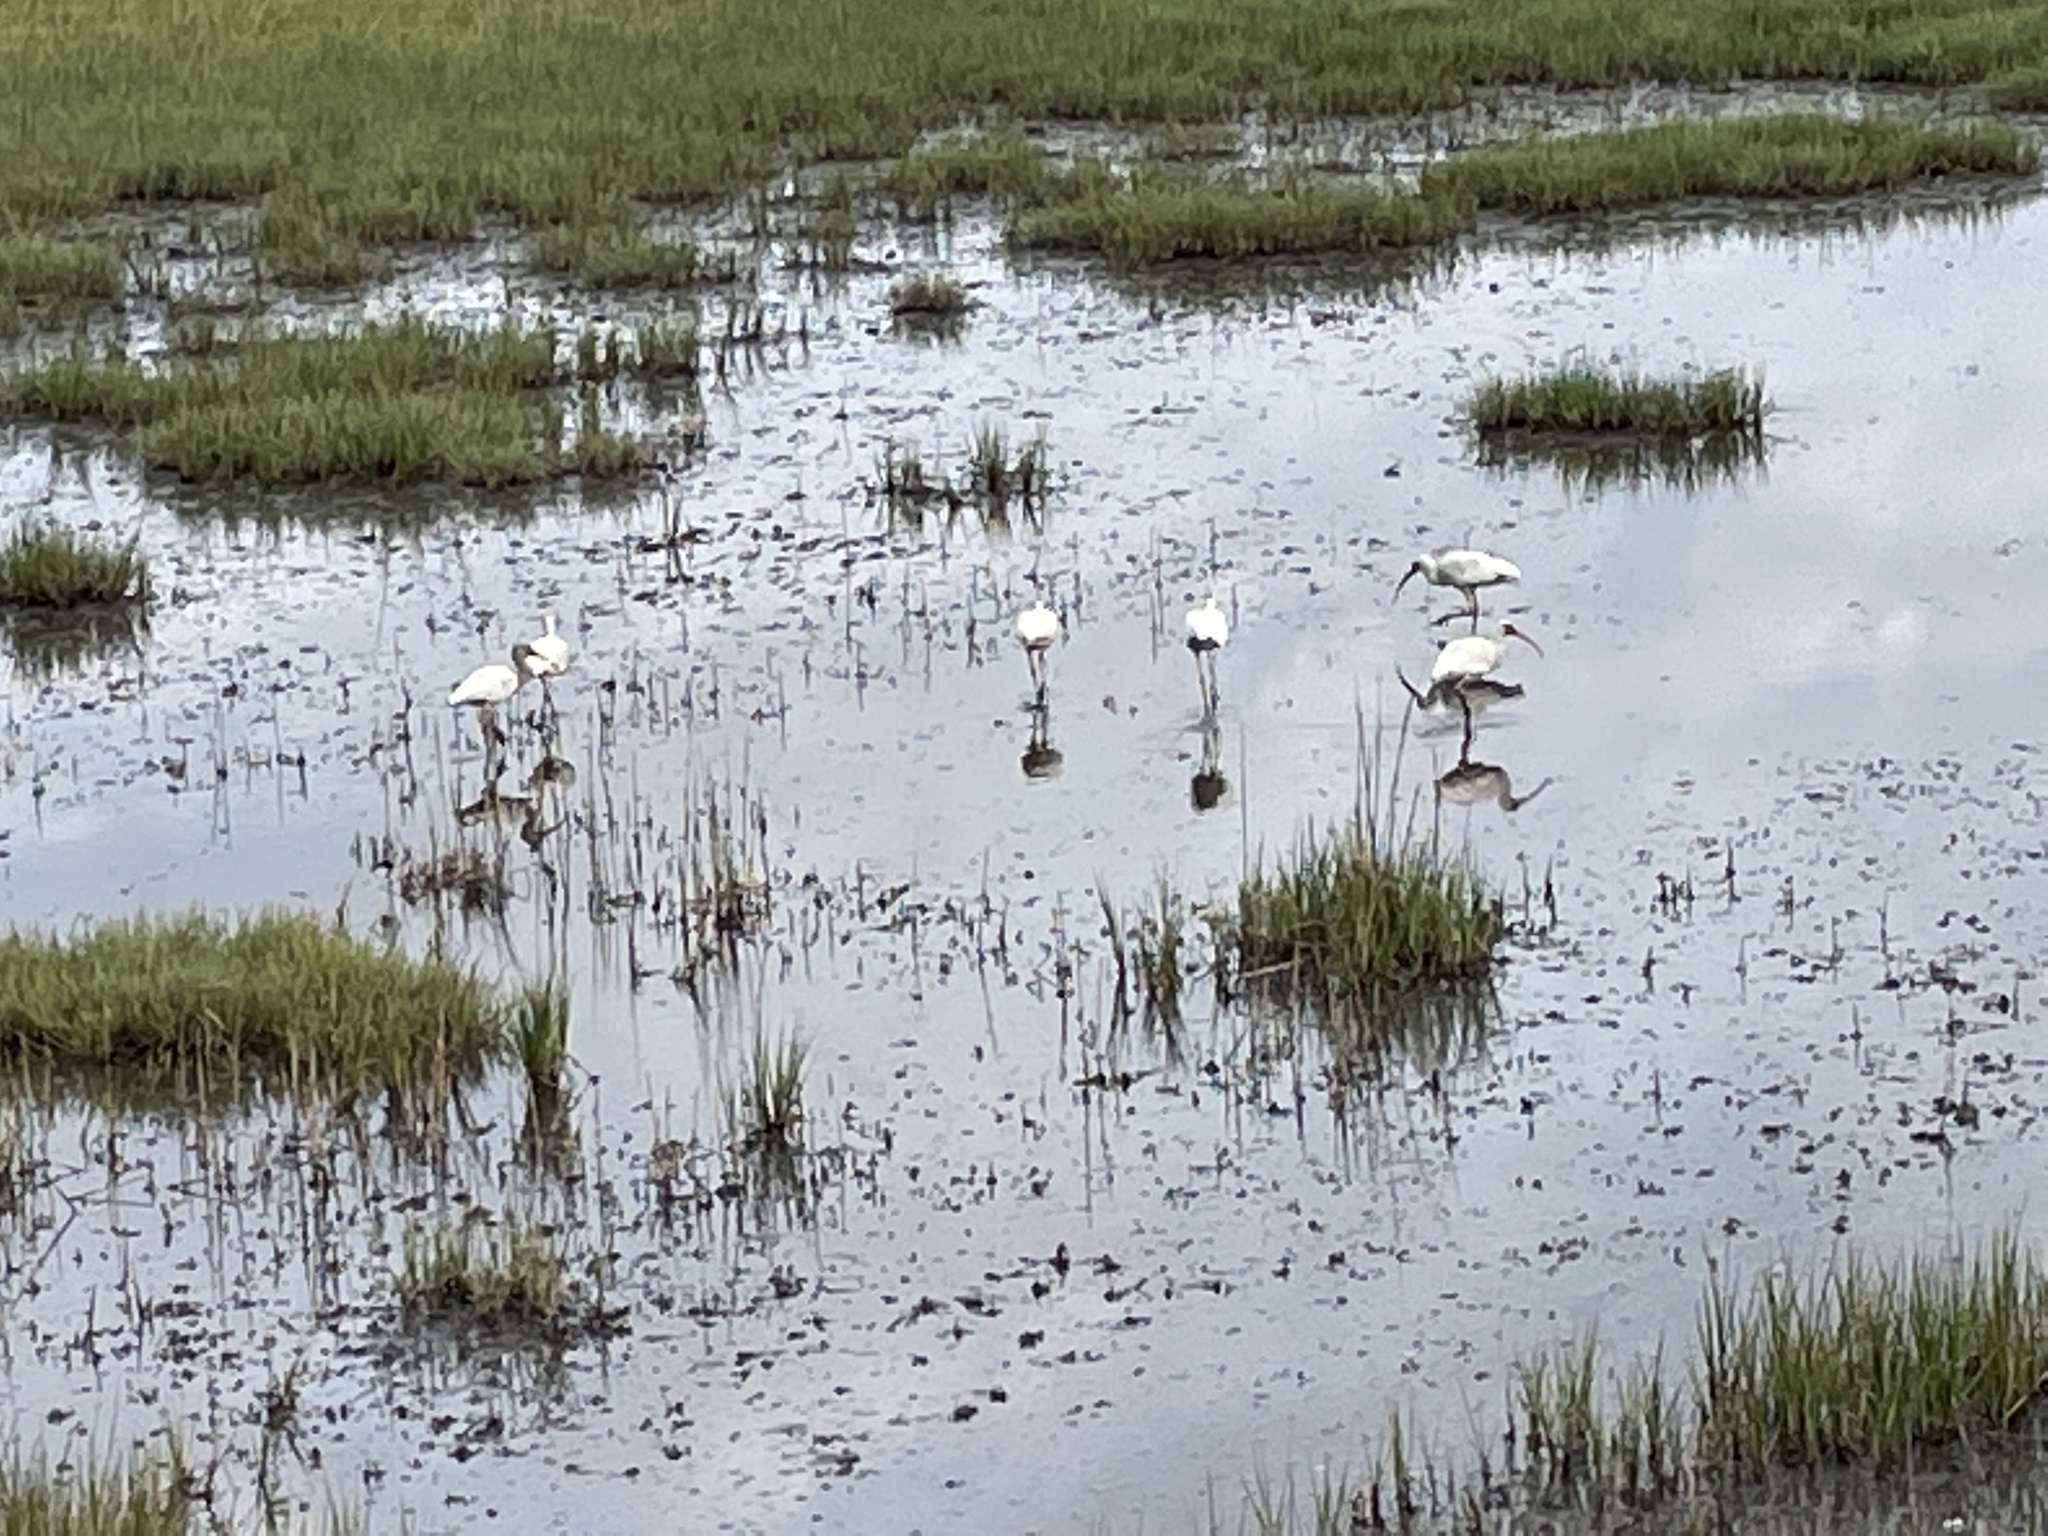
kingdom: Animalia
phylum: Chordata
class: Aves
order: Pelecaniformes
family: Threskiornithidae
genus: Eudocimus
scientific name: Eudocimus albus
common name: White ibis
